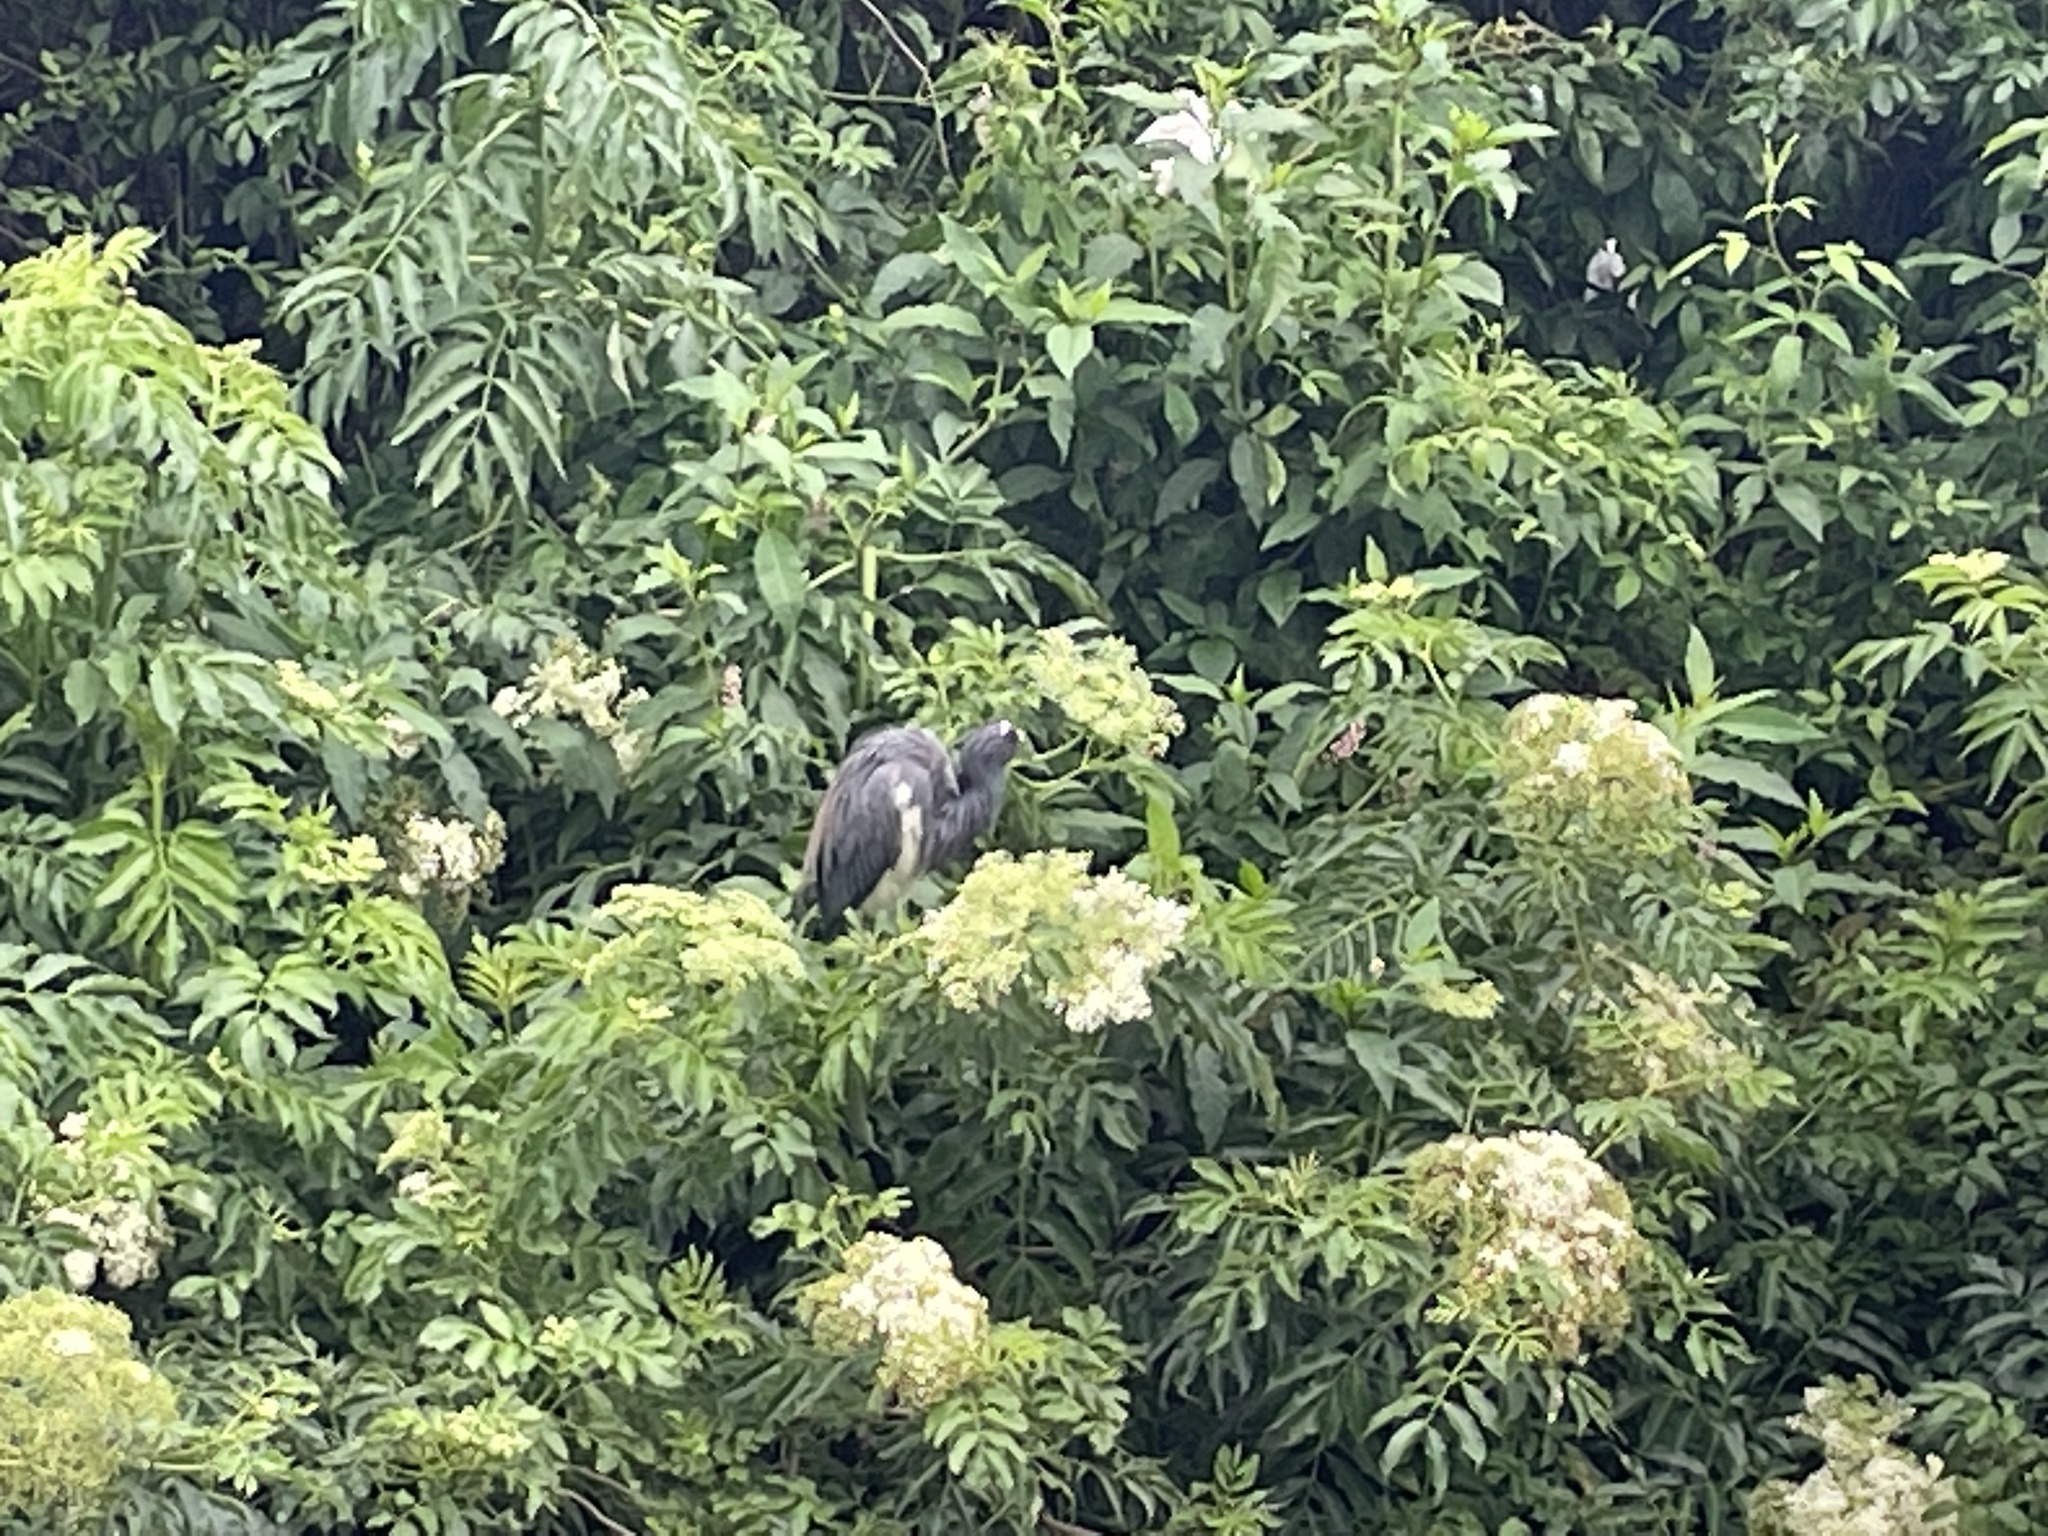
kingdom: Animalia
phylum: Chordata
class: Aves
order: Pelecaniformes
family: Ardeidae
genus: Egretta
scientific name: Egretta tricolor
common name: Tricolored heron
